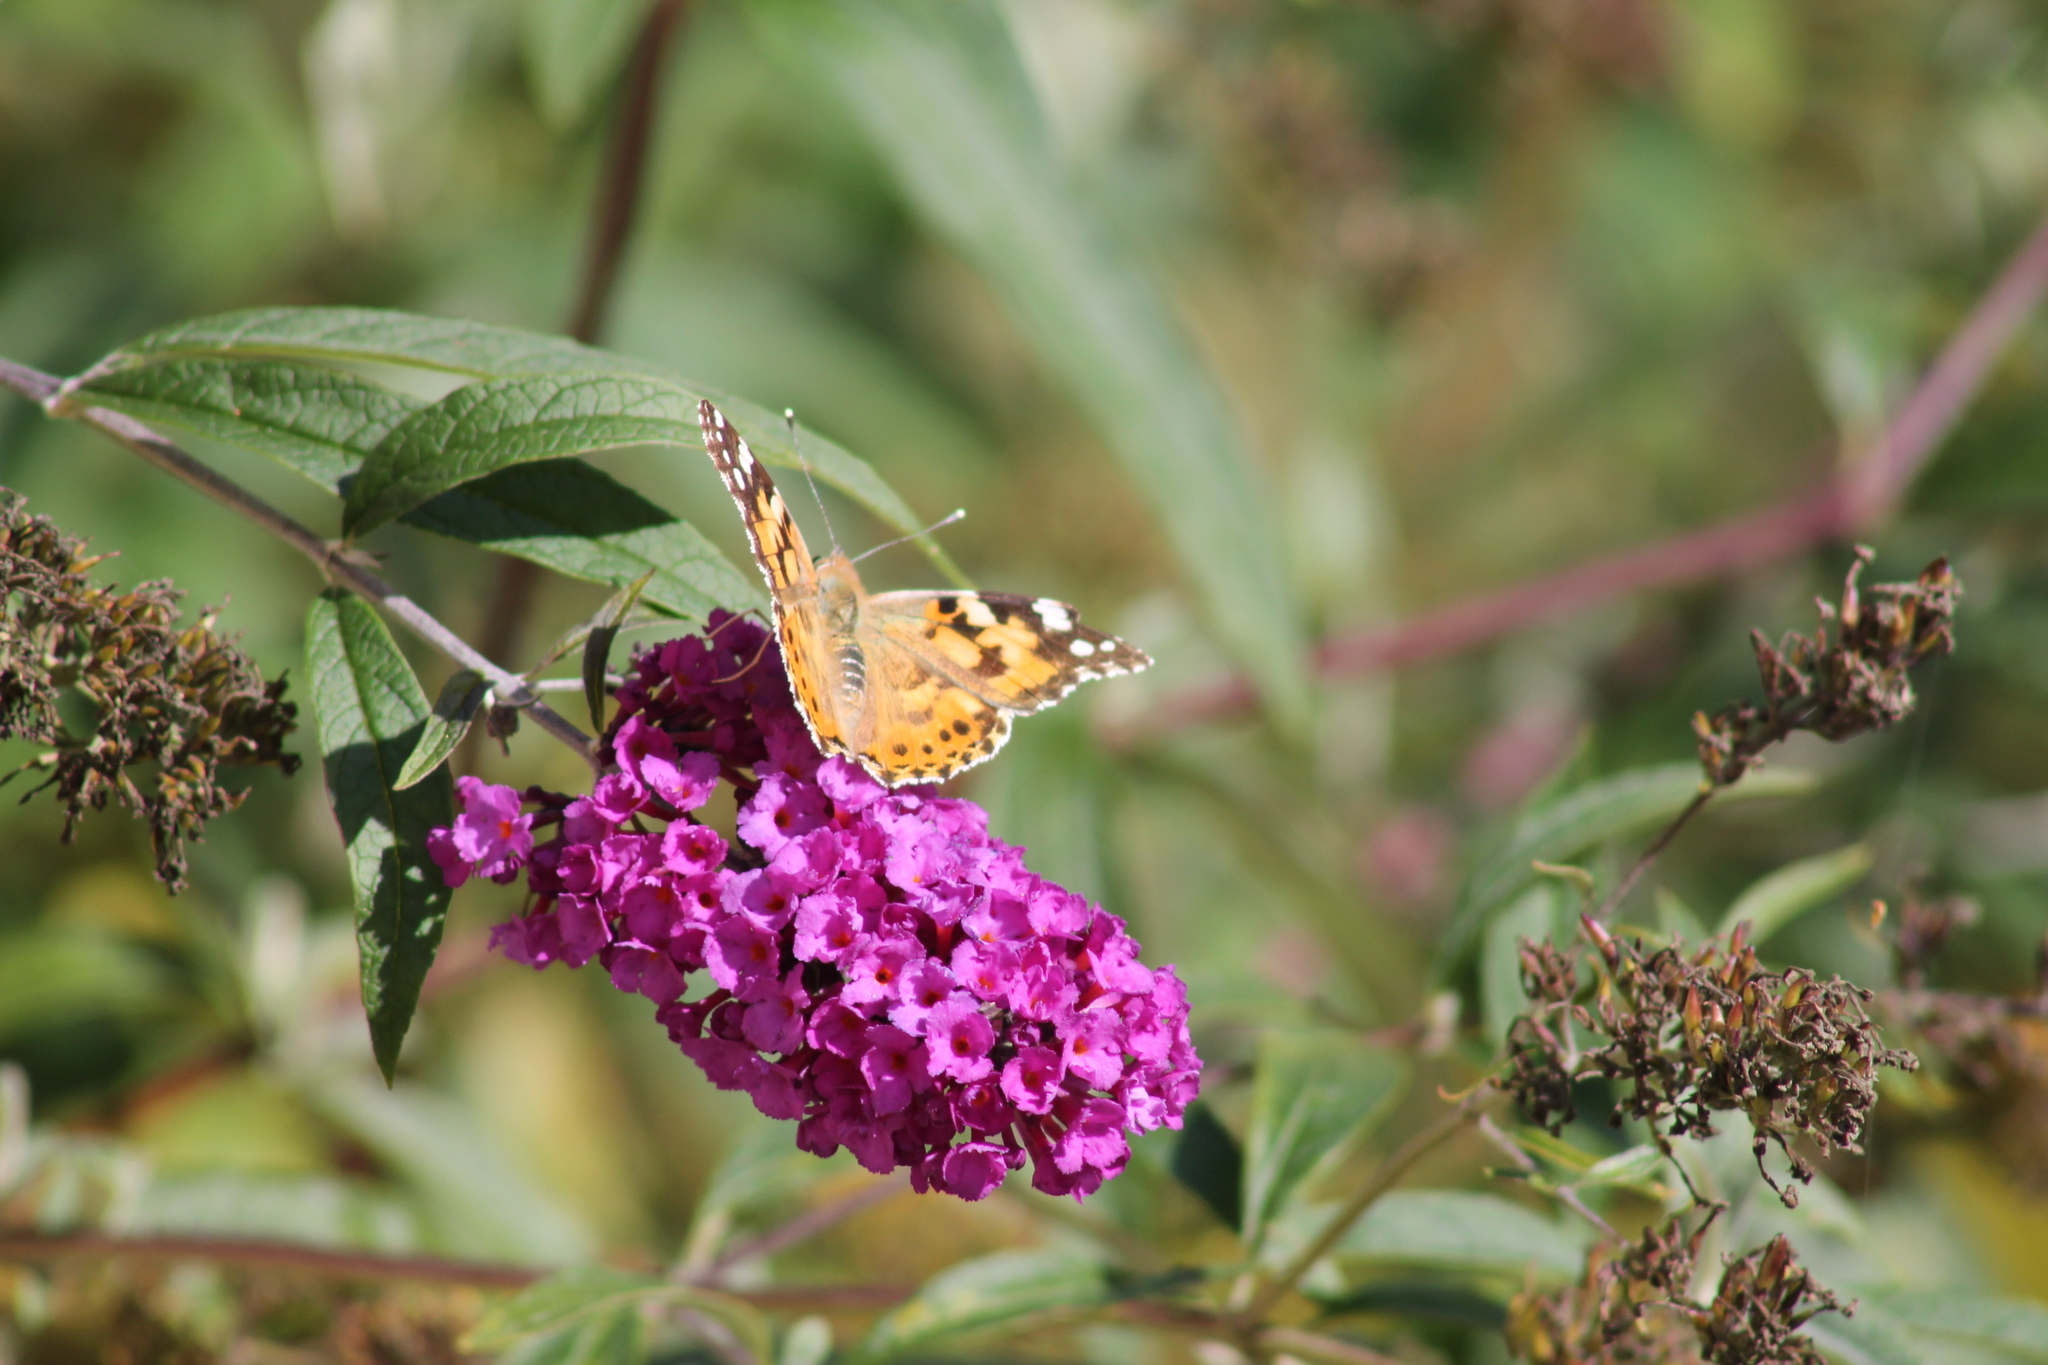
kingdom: Animalia
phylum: Arthropoda
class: Insecta
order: Lepidoptera
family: Nymphalidae
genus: Vanessa
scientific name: Vanessa cardui
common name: Painted lady
